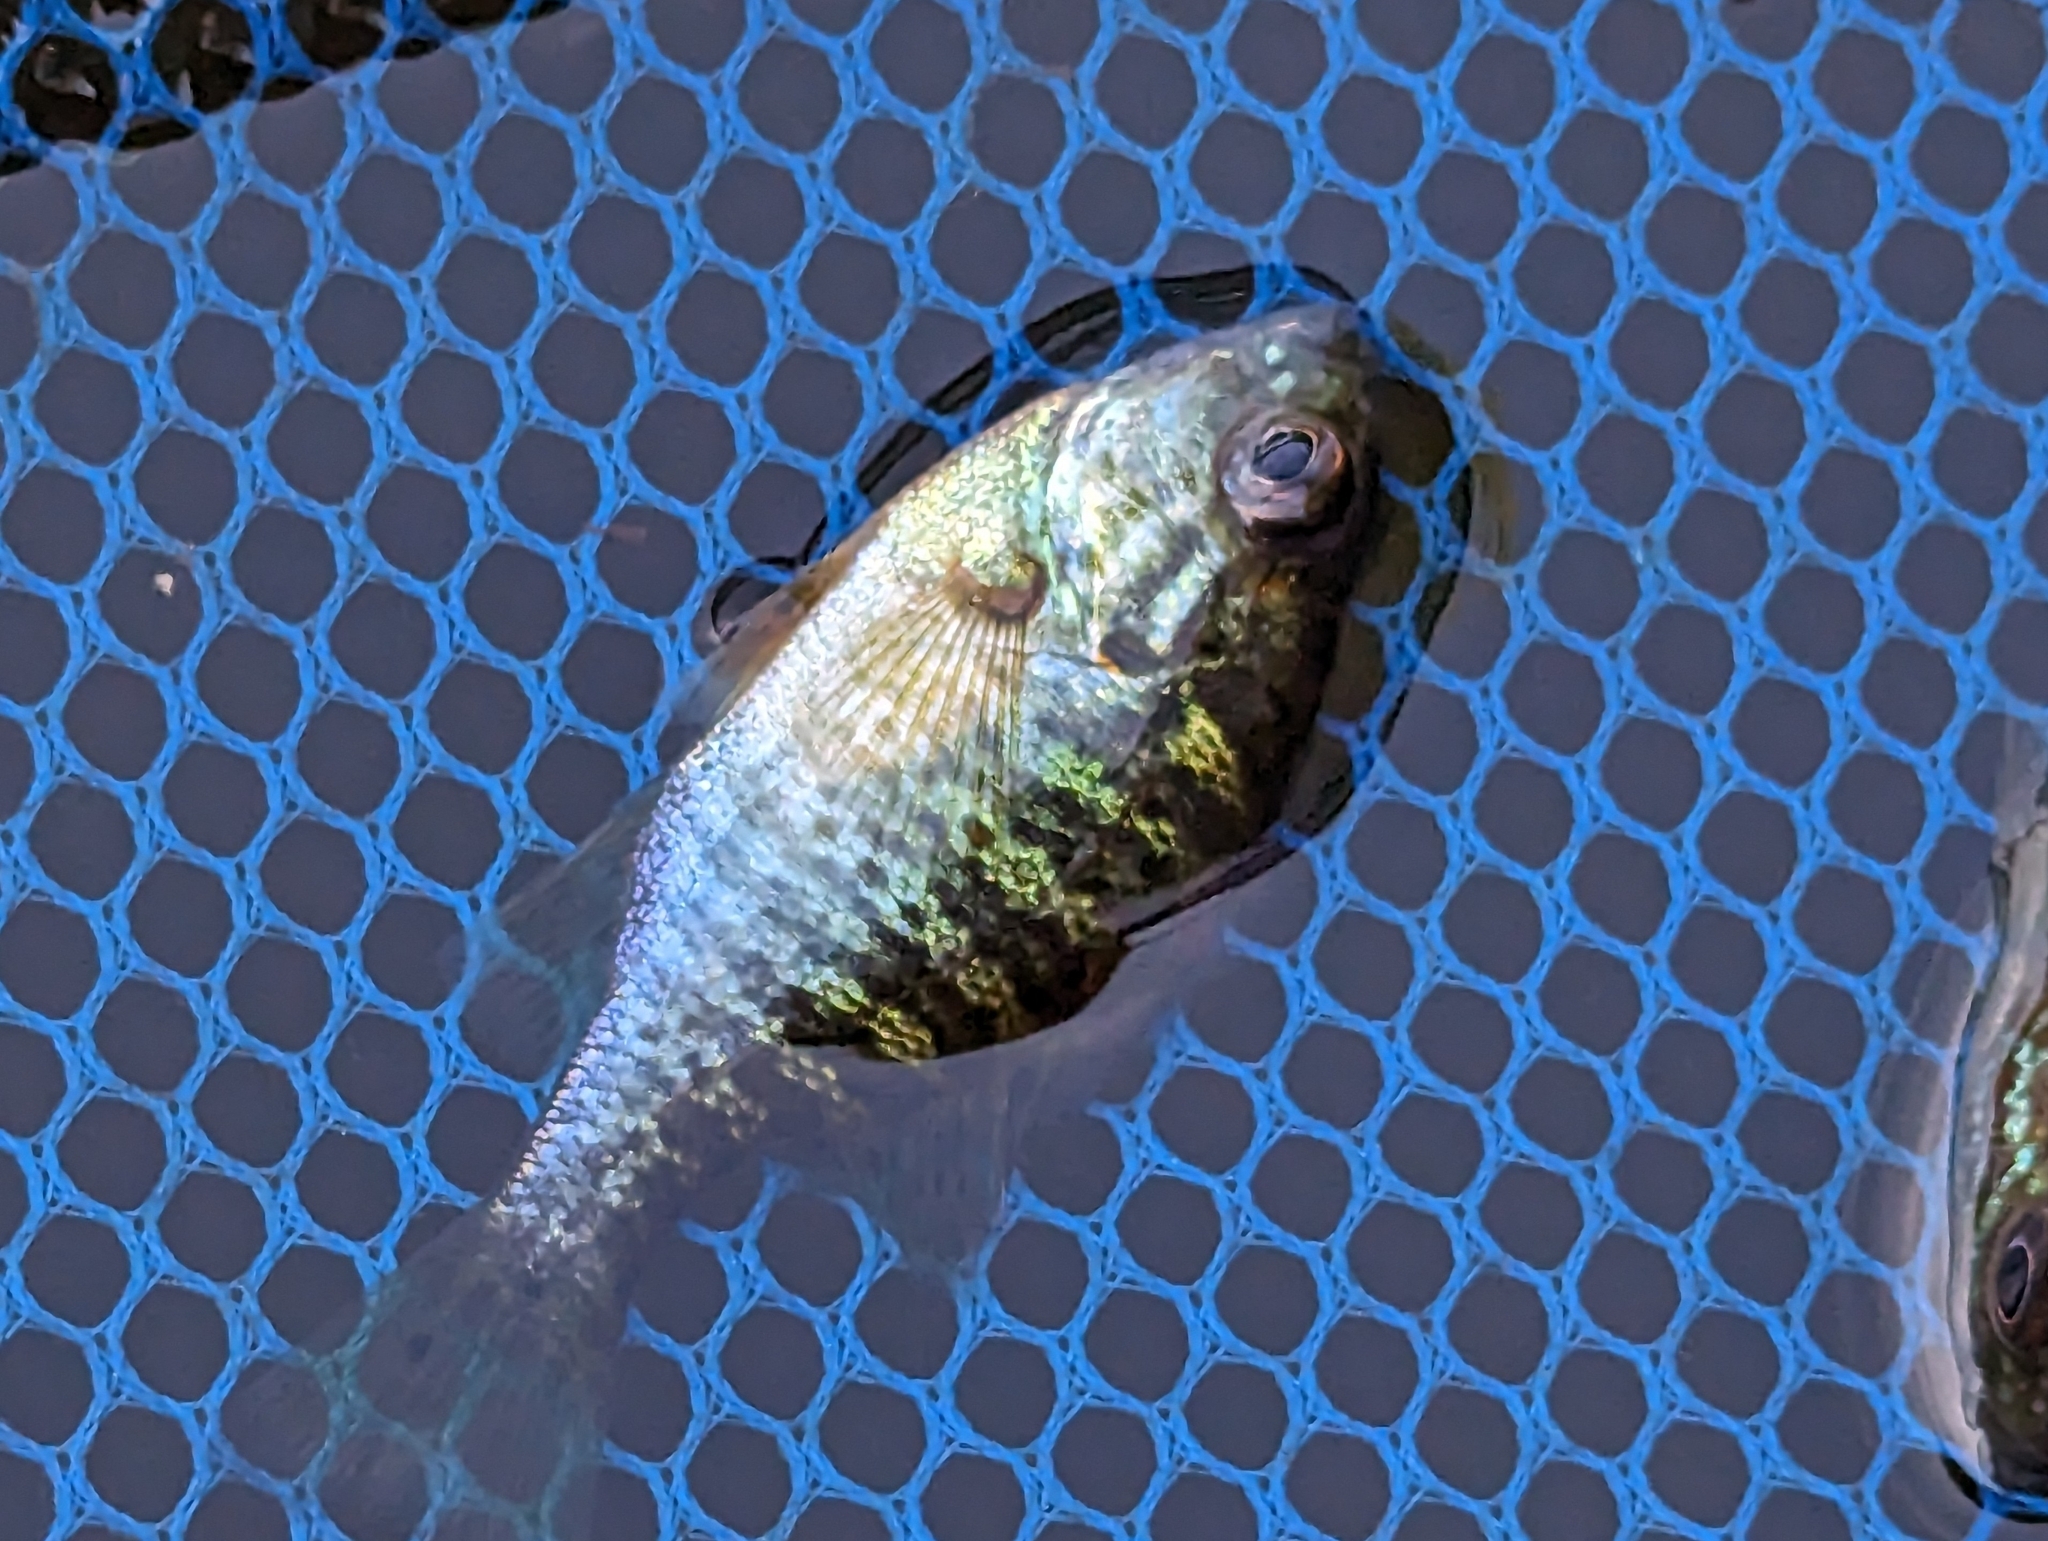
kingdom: Animalia
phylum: Chordata
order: Perciformes
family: Centrarchidae
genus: Lepomis
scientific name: Lepomis gibbosus
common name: Pumpkinseed
